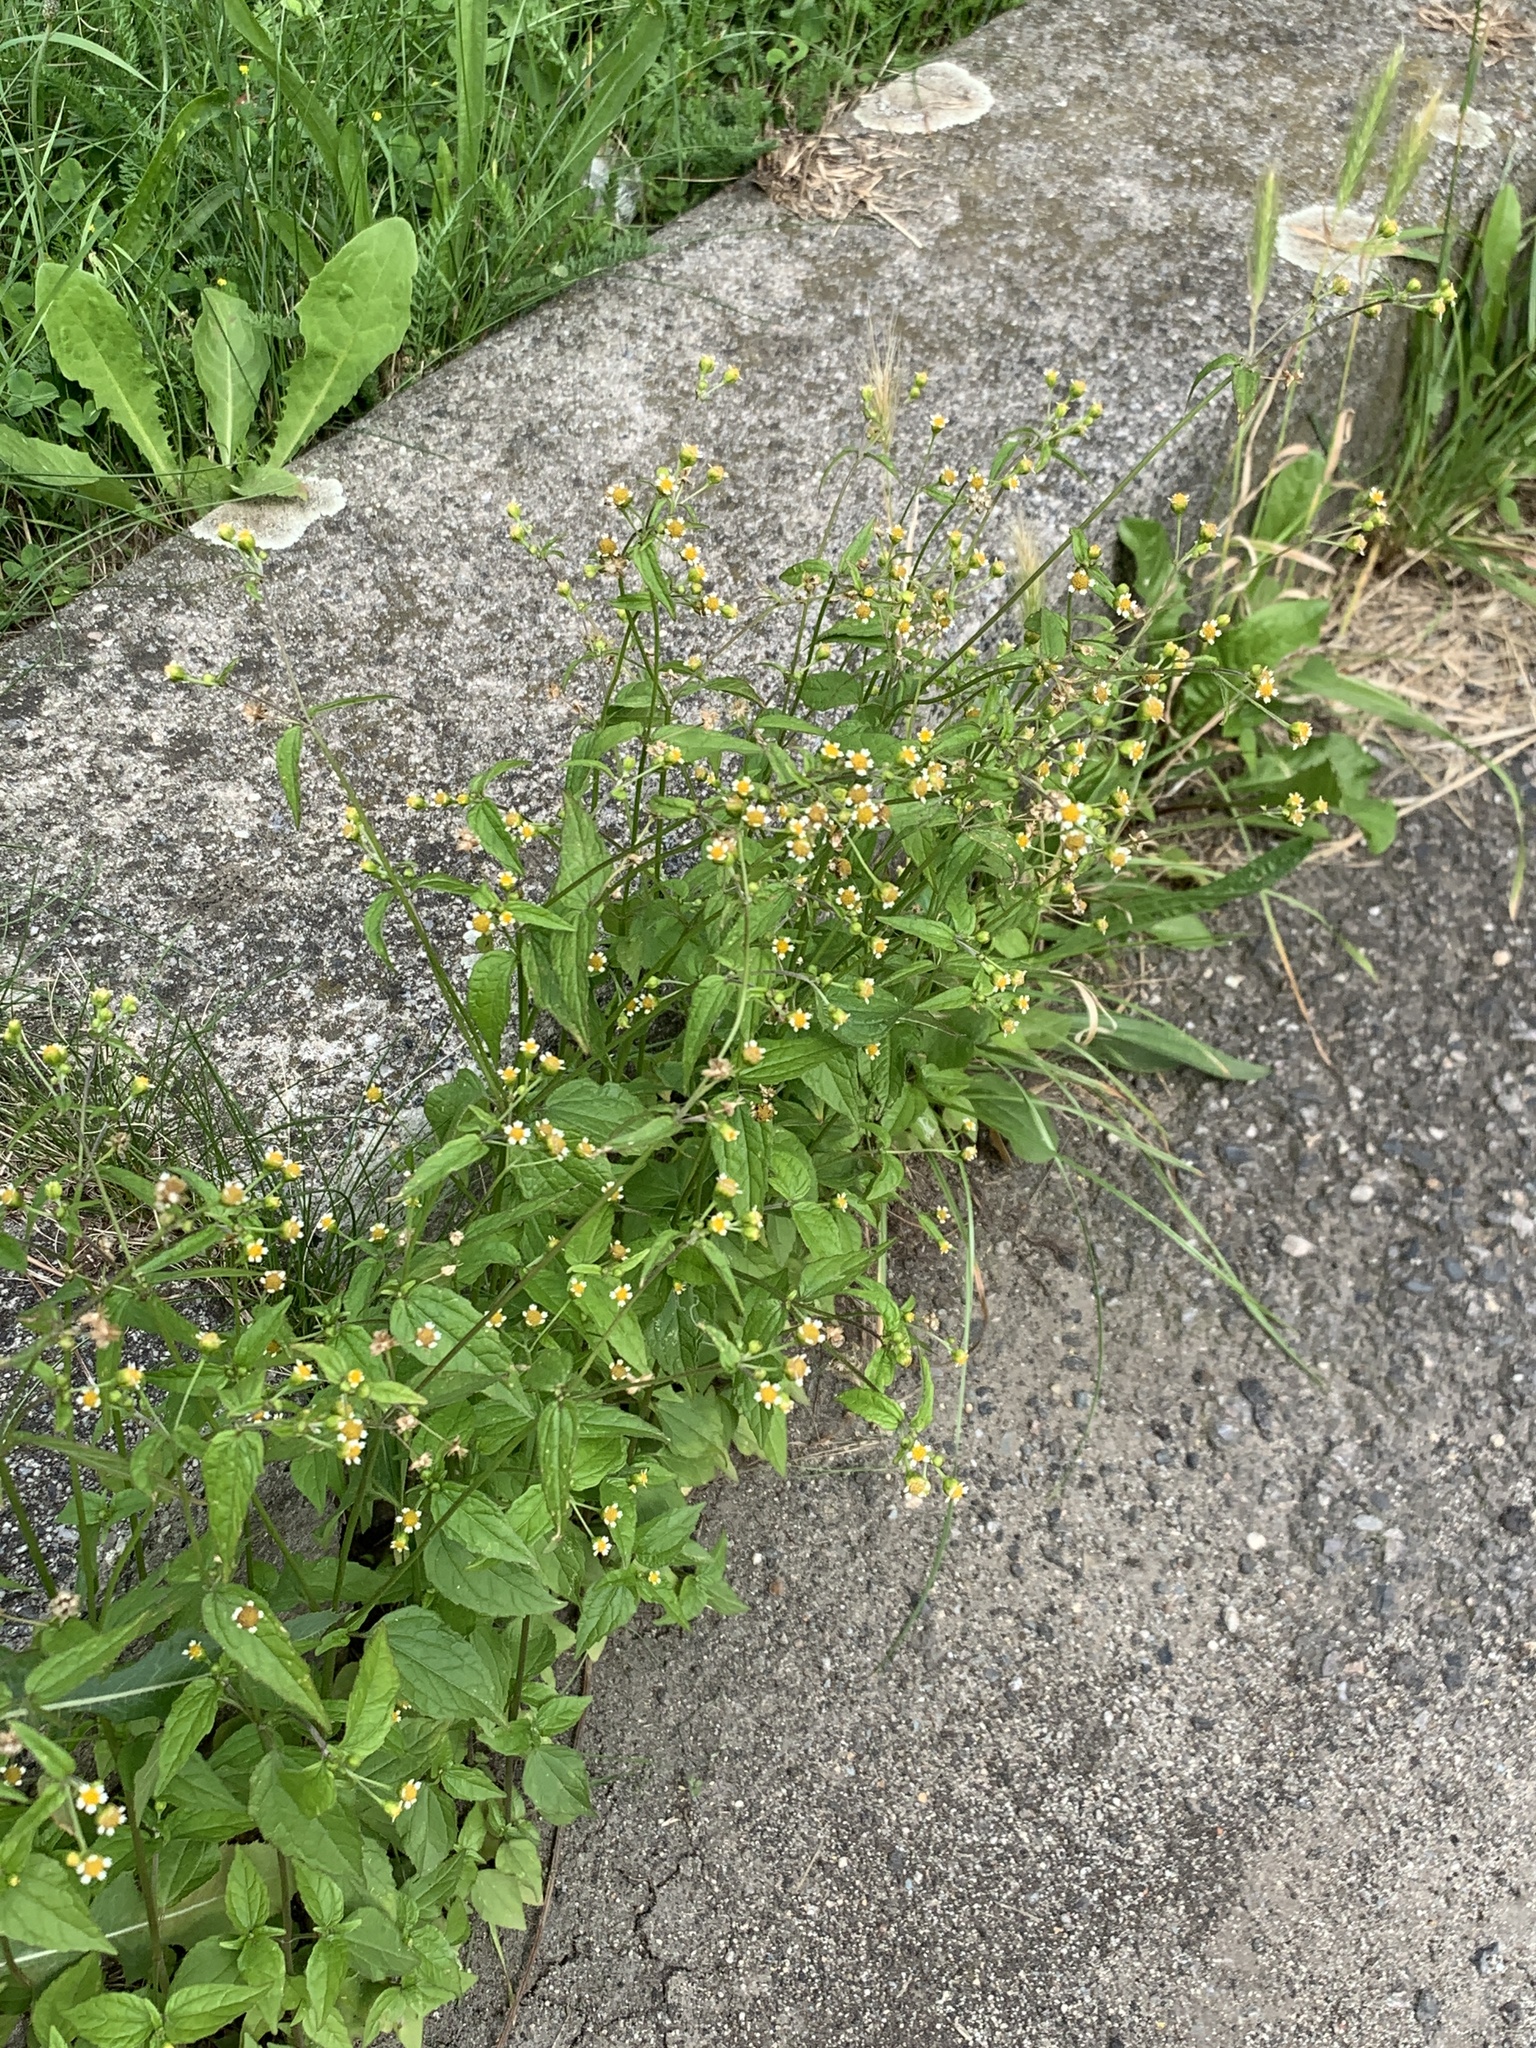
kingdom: Plantae
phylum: Tracheophyta
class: Magnoliopsida
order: Asterales
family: Asteraceae
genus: Galinsoga
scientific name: Galinsoga parviflora
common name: Gallant soldier
